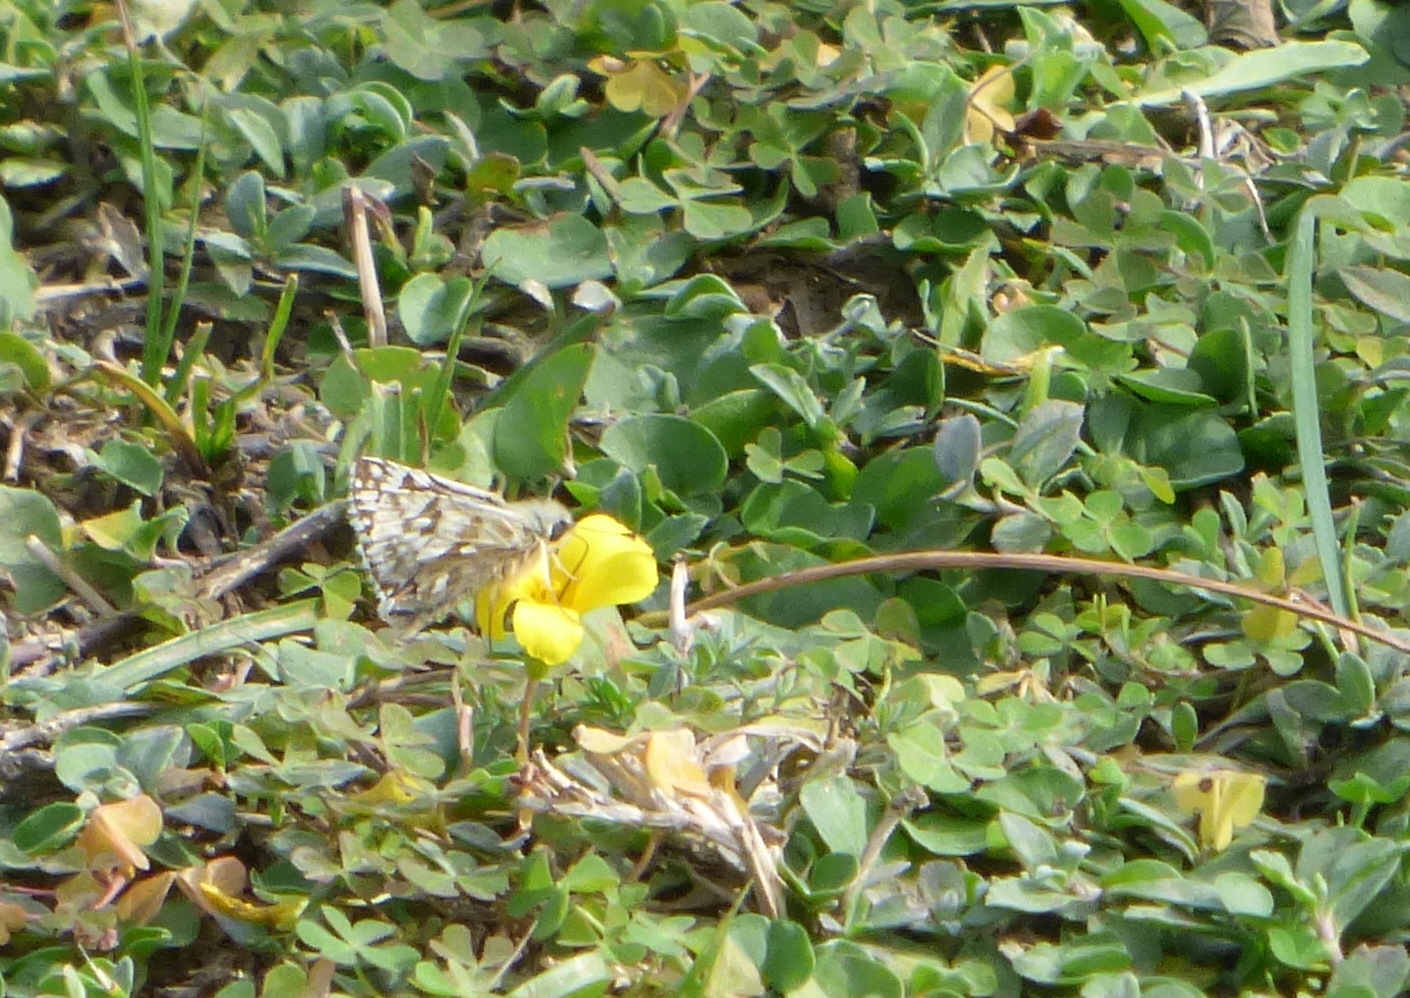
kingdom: Animalia
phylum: Arthropoda
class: Insecta
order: Lepidoptera
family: Hesperiidae
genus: Heliopetes
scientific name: Heliopetes americanus
